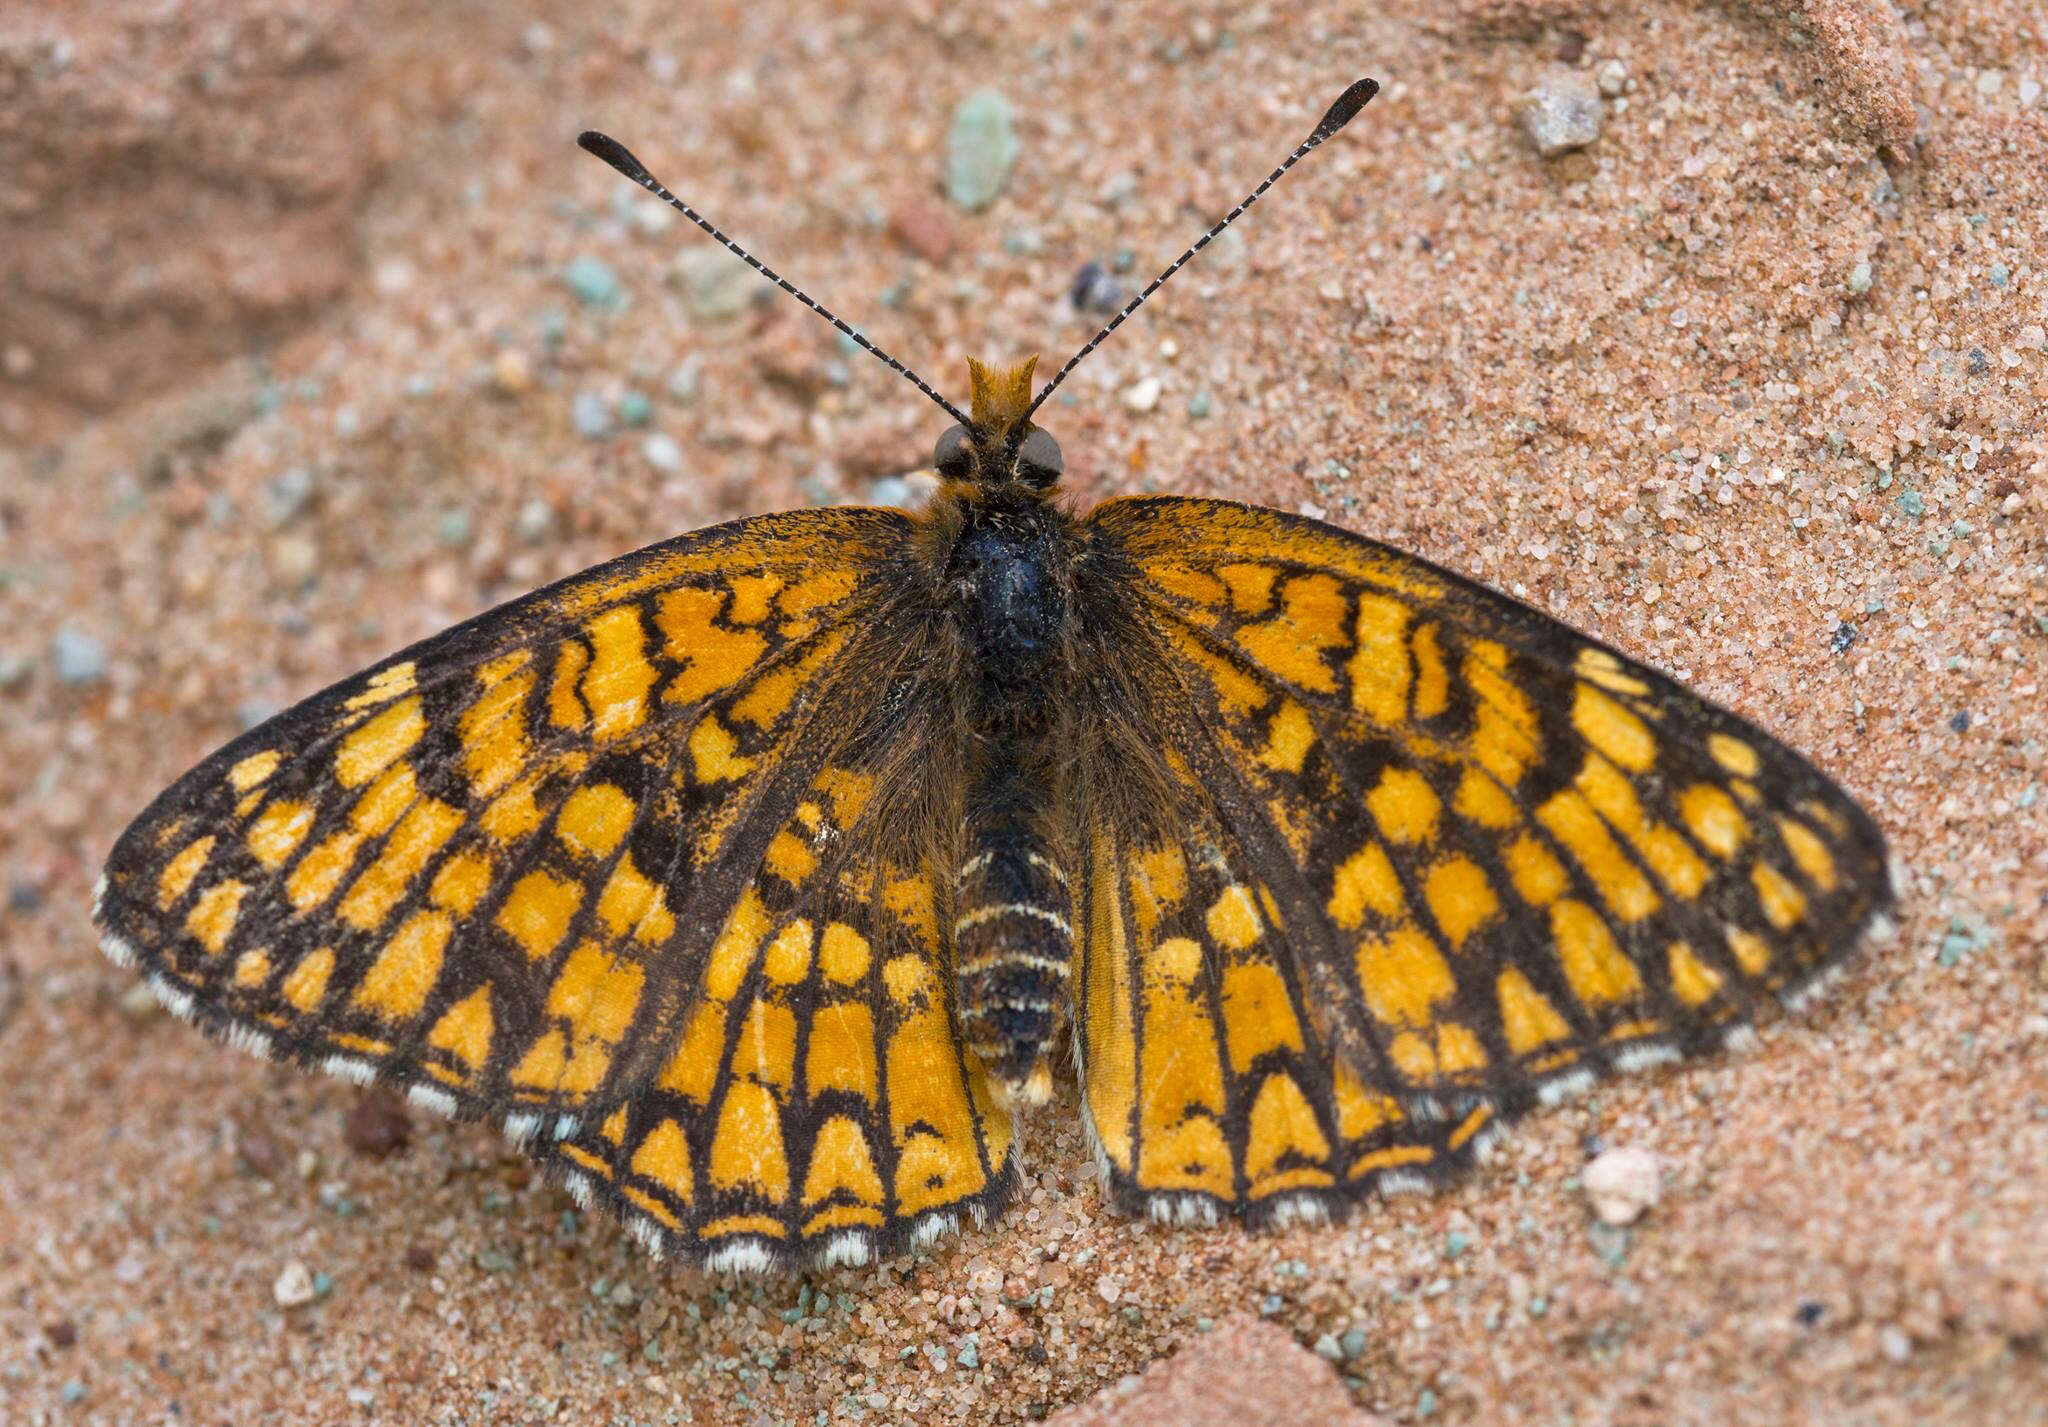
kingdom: Animalia
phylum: Arthropoda
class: Insecta
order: Lepidoptera
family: Nymphalidae
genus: Chlosyne
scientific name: Chlosyne acastus
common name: Sagebrush checkerspot
